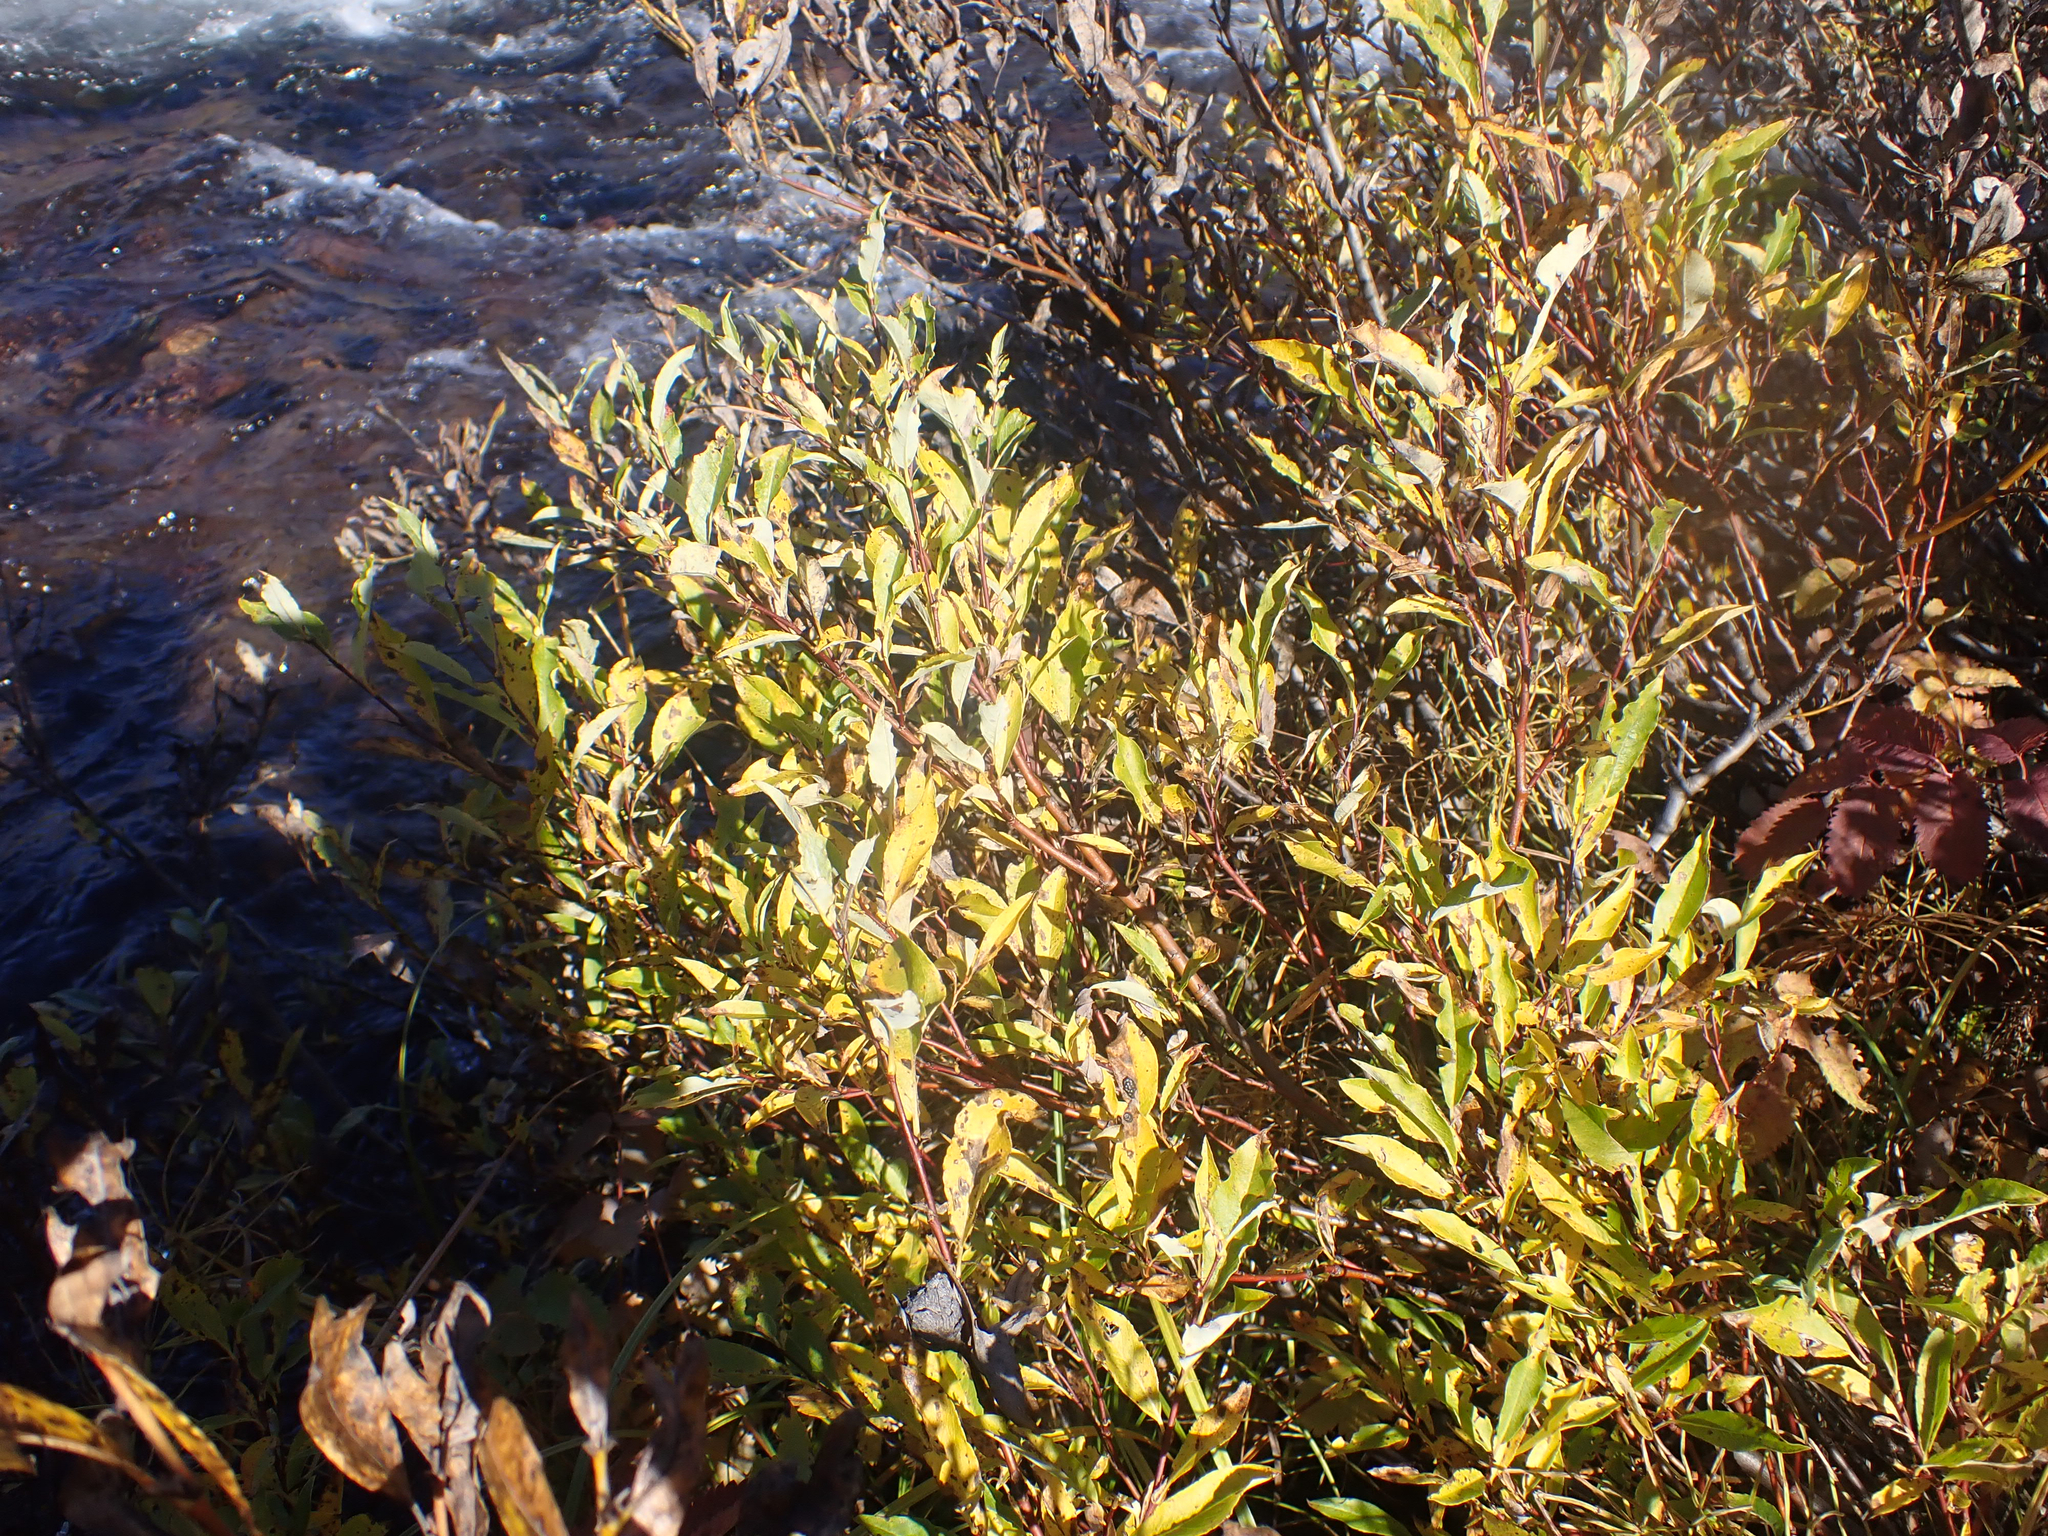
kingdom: Fungi
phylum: Ascomycota
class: Leotiomycetes
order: Rhytismatales
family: Rhytismataceae
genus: Rhytisma
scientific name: Rhytisma salicinum
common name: Willow tarspot
